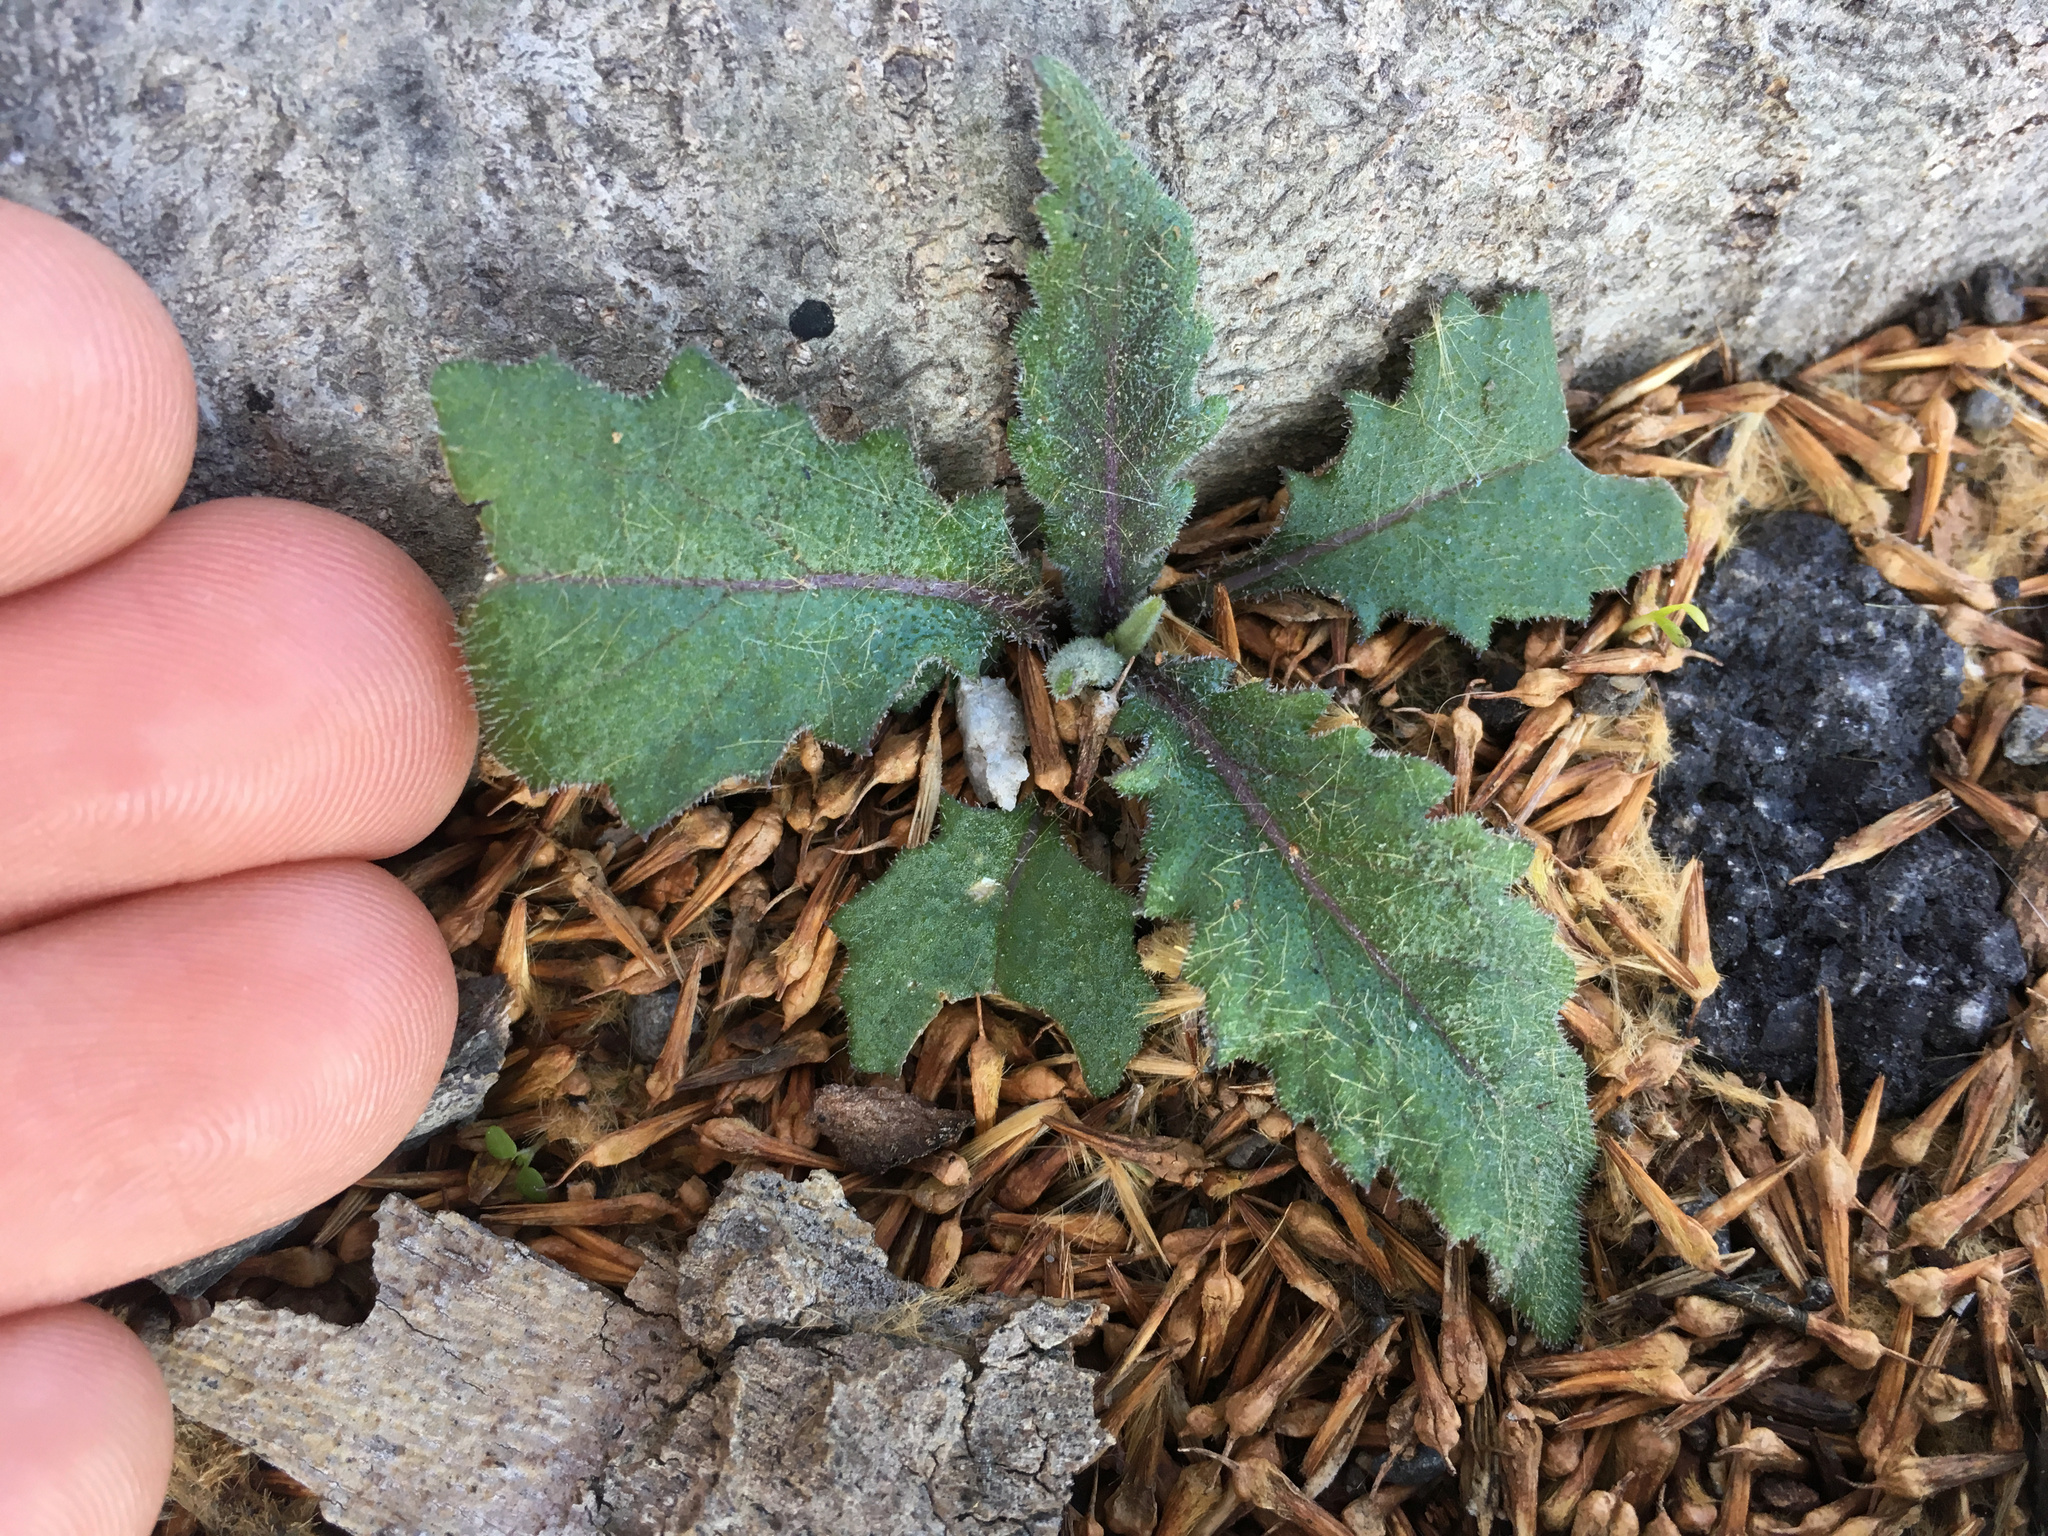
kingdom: Plantae
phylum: Tracheophyta
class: Magnoliopsida
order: Asterales
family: Asteraceae
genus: Senecio
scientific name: Senecio minimus
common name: Toothed fireweed
